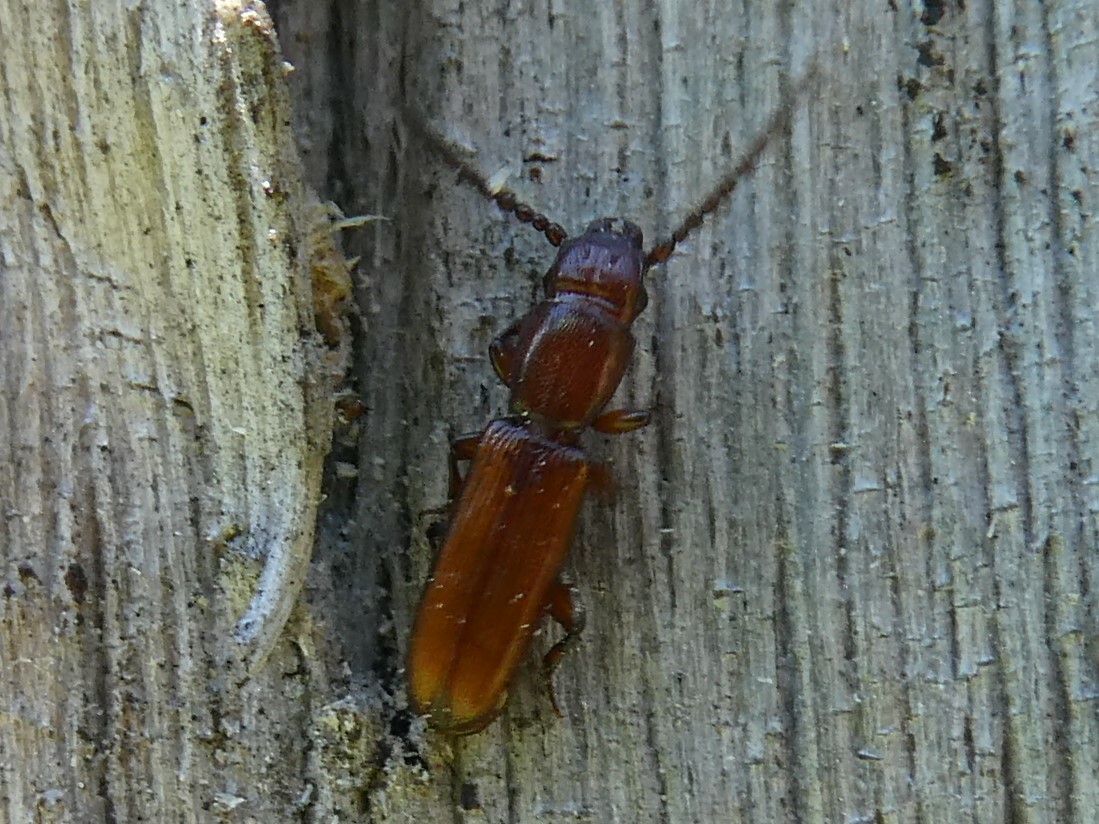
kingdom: Animalia
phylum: Arthropoda
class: Insecta
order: Coleoptera
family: Passandridae
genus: Catogenus
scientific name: Catogenus rufus
